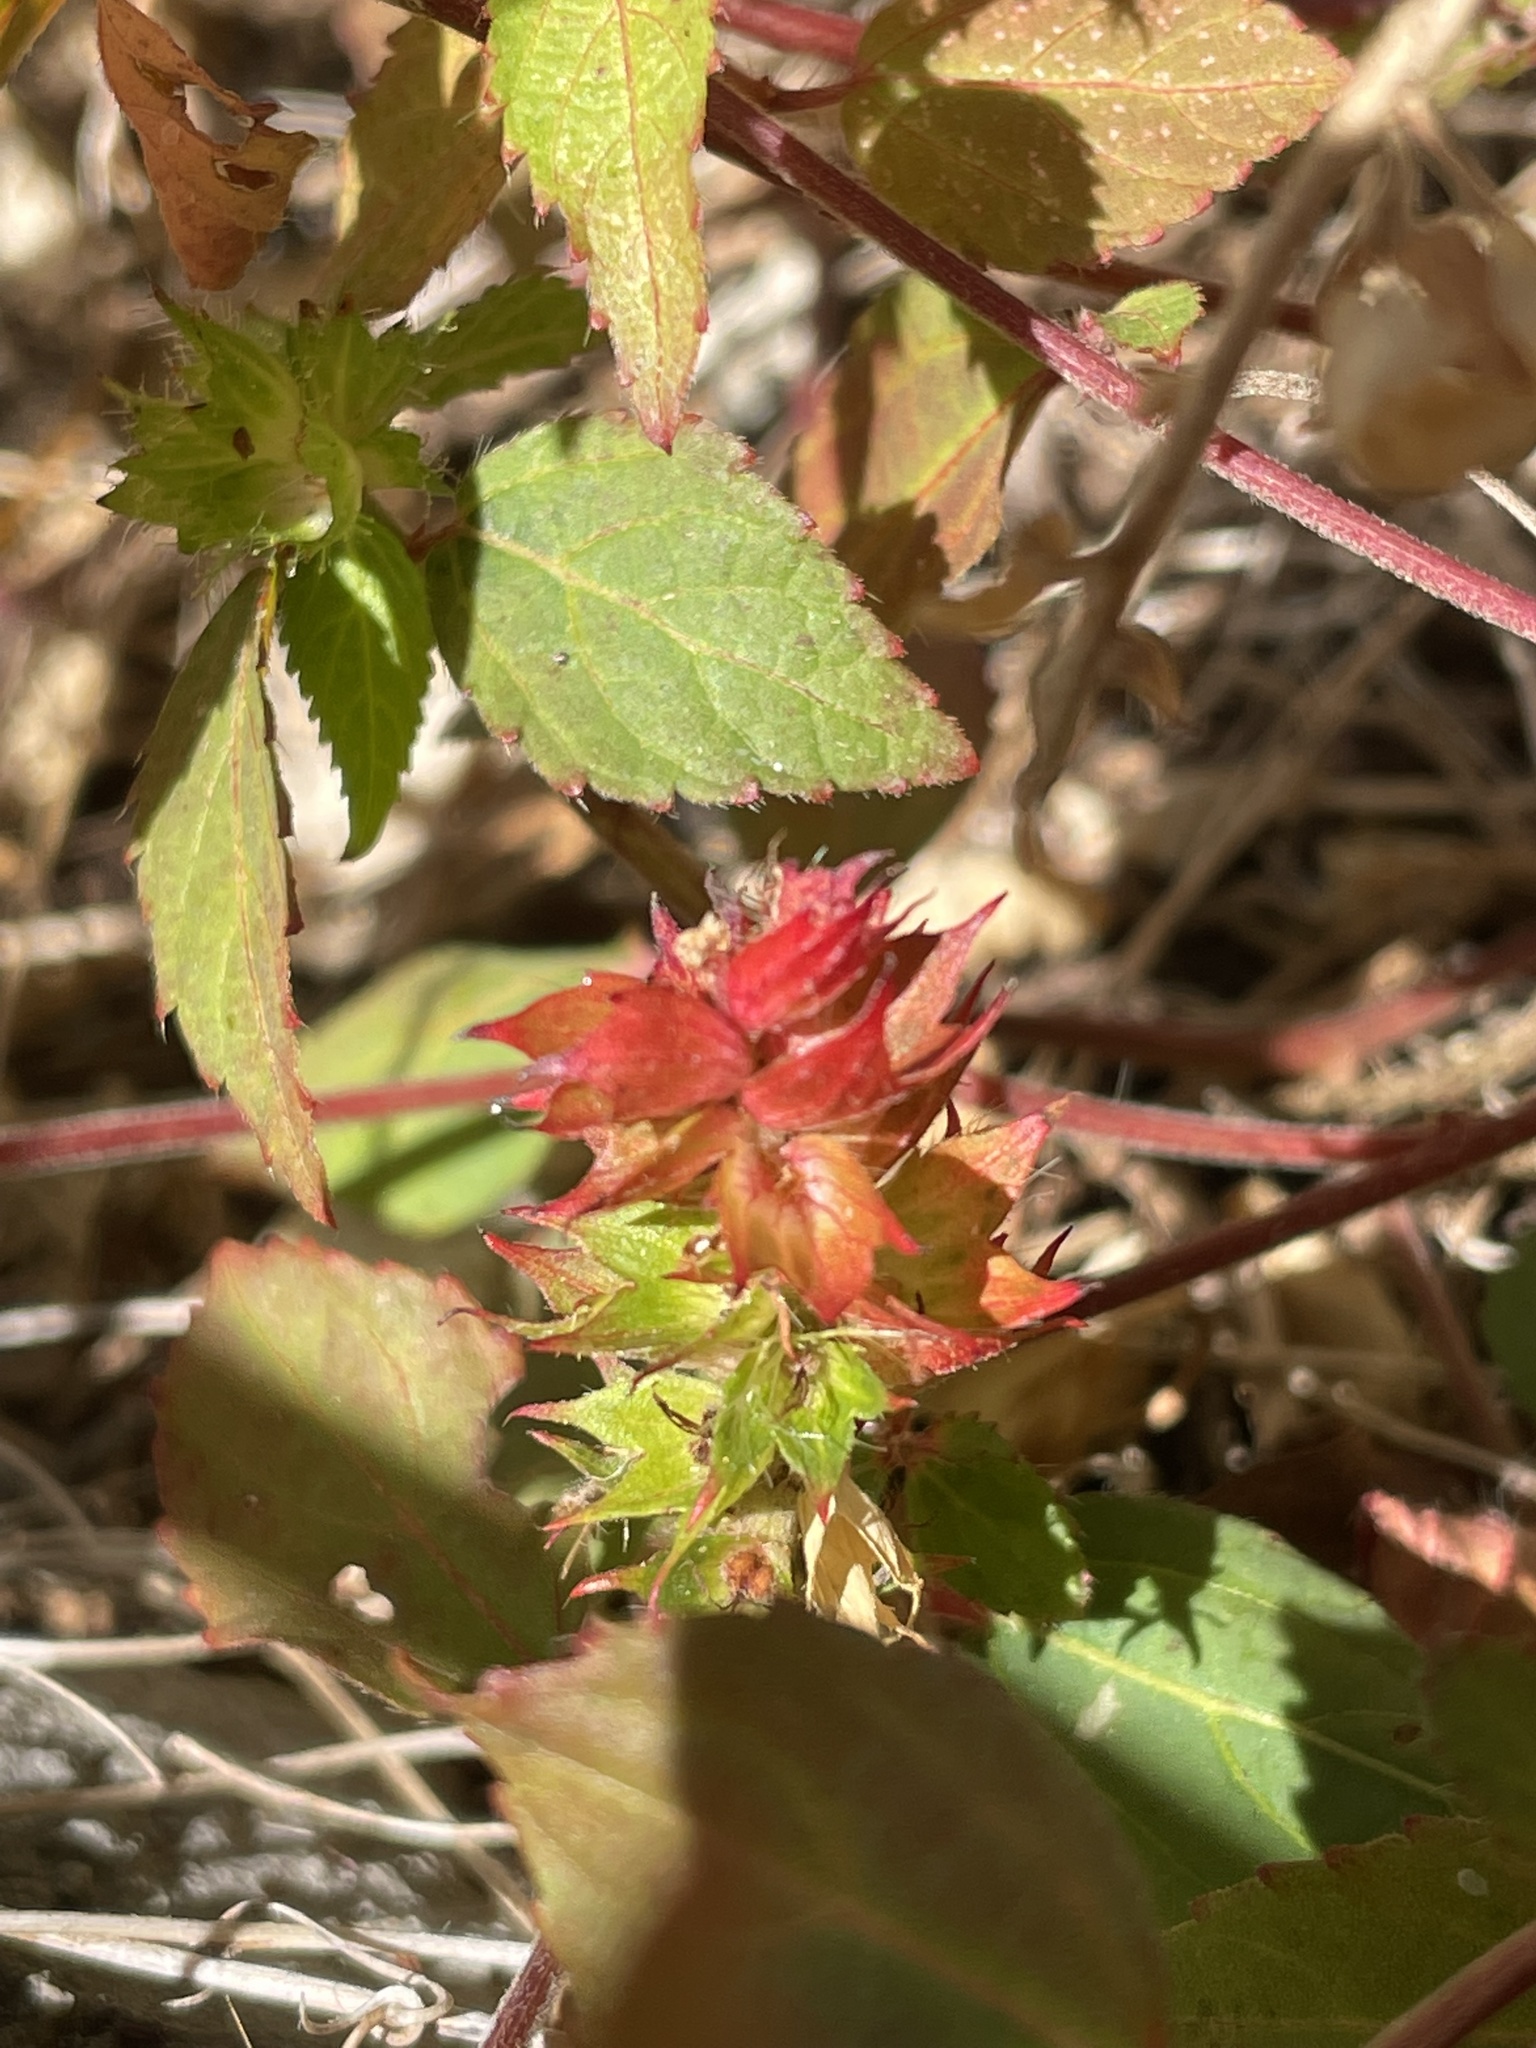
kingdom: Plantae
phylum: Tracheophyta
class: Magnoliopsida
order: Malpighiales
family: Euphorbiaceae
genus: Acalypha
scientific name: Acalypha phleoides
